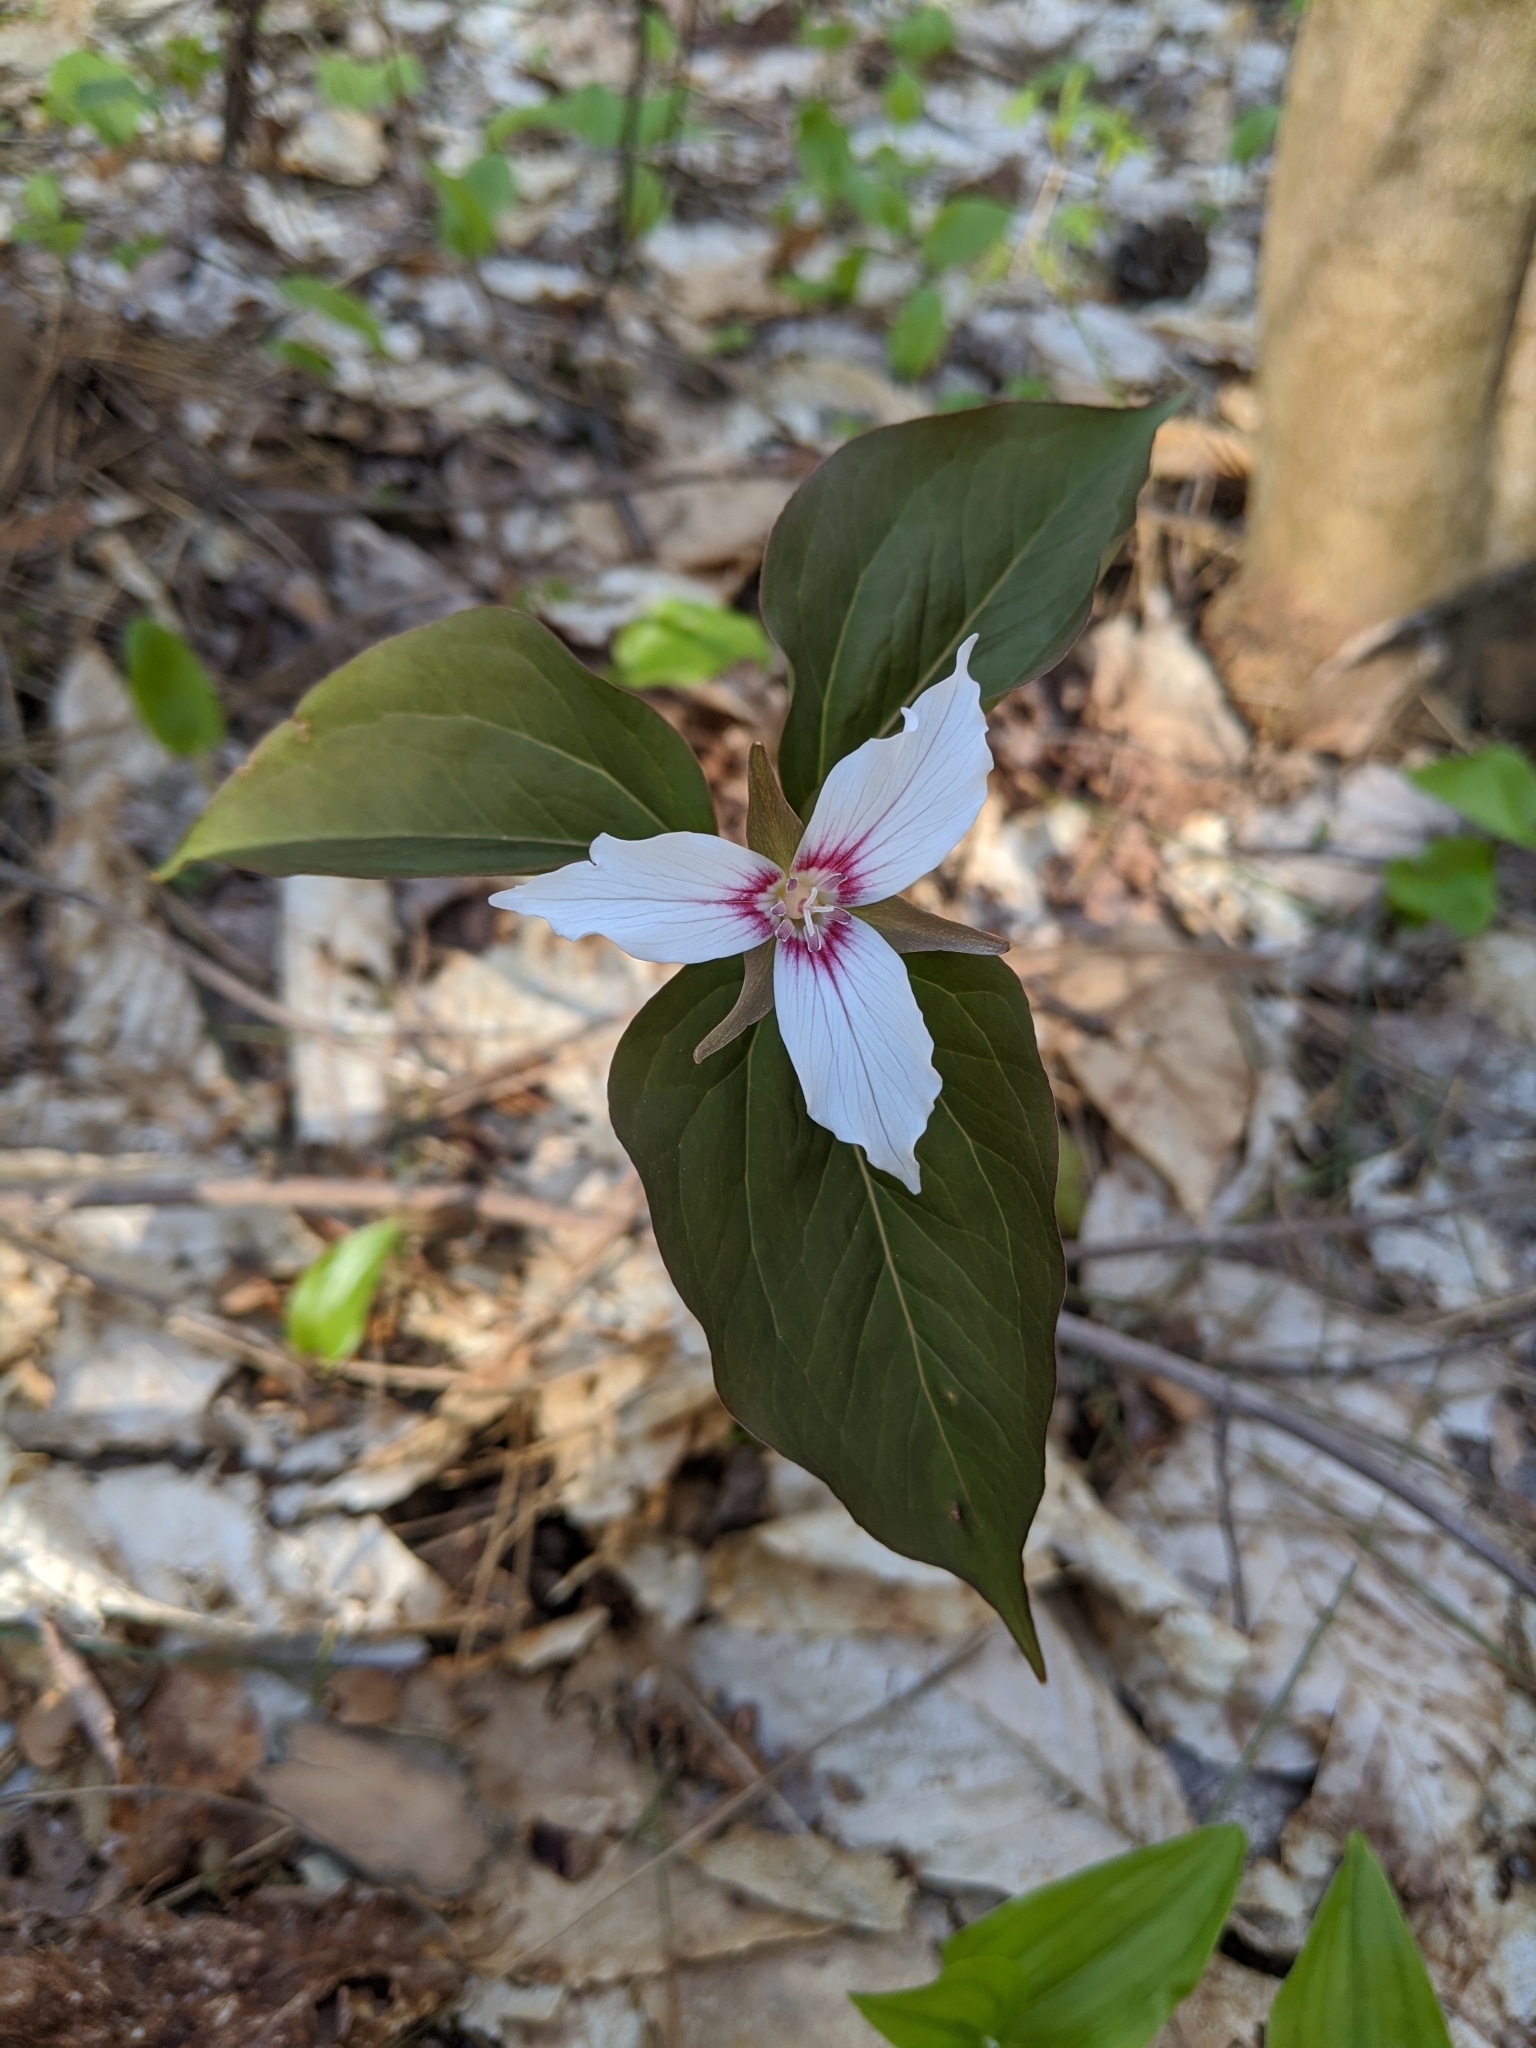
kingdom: Plantae
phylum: Tracheophyta
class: Liliopsida
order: Liliales
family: Melanthiaceae
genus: Trillium
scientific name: Trillium undulatum
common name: Paint trillium
